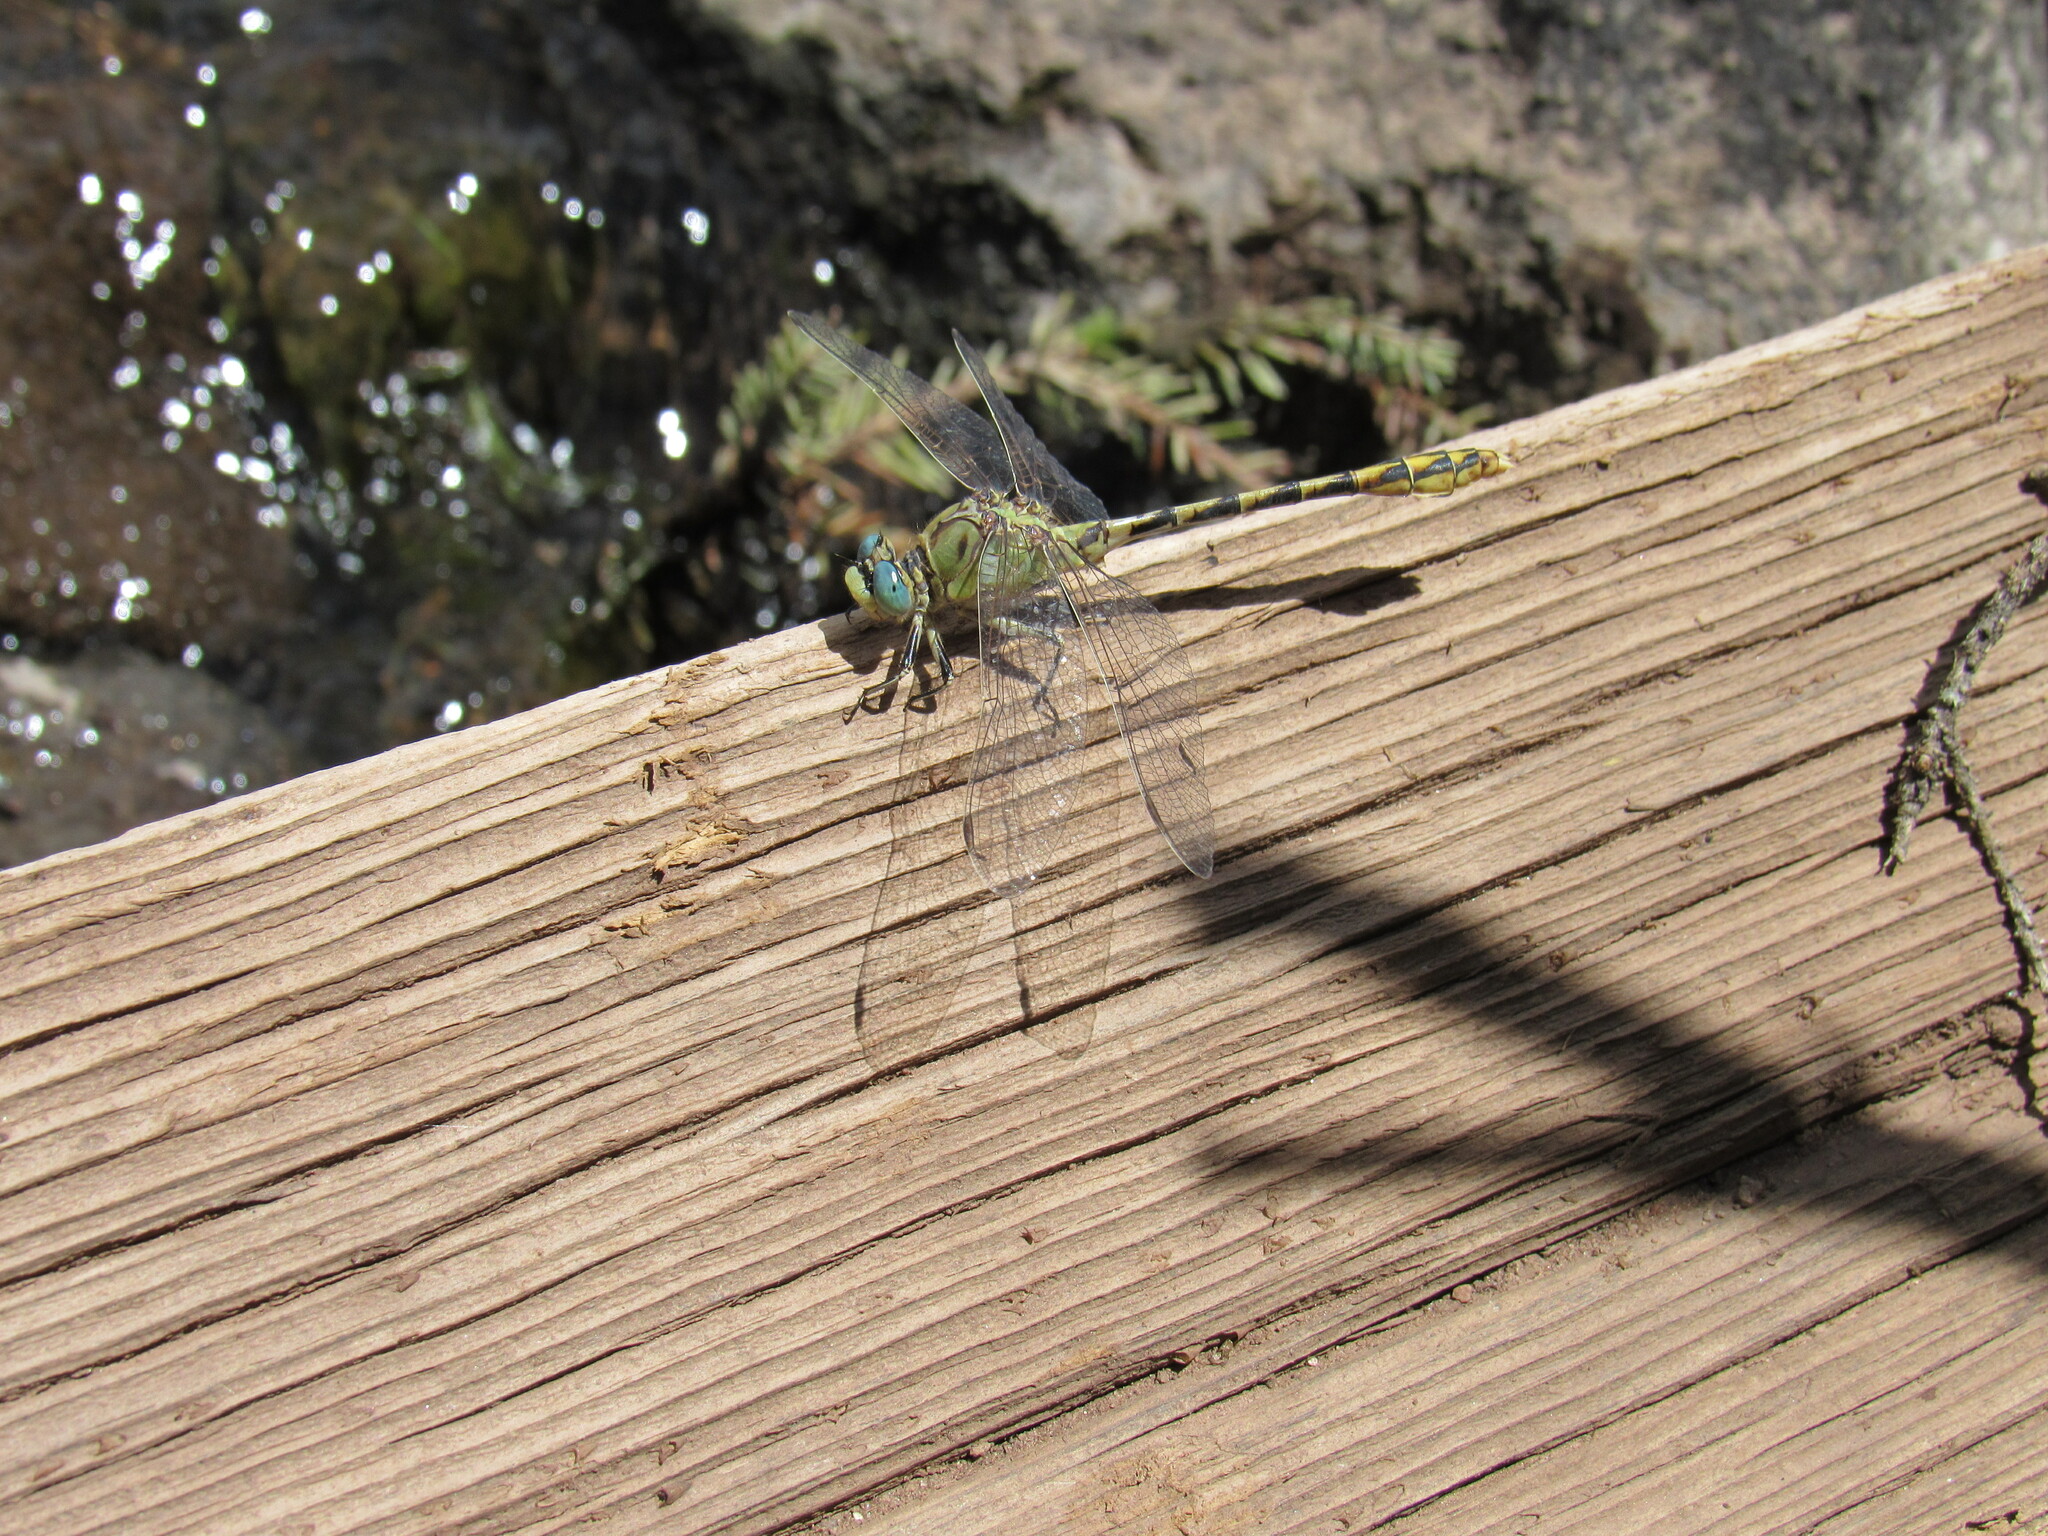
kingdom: Animalia
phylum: Arthropoda
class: Insecta
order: Odonata
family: Gomphidae
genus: Ophiogomphus
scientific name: Ophiogomphus severus
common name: Pale snaketail
